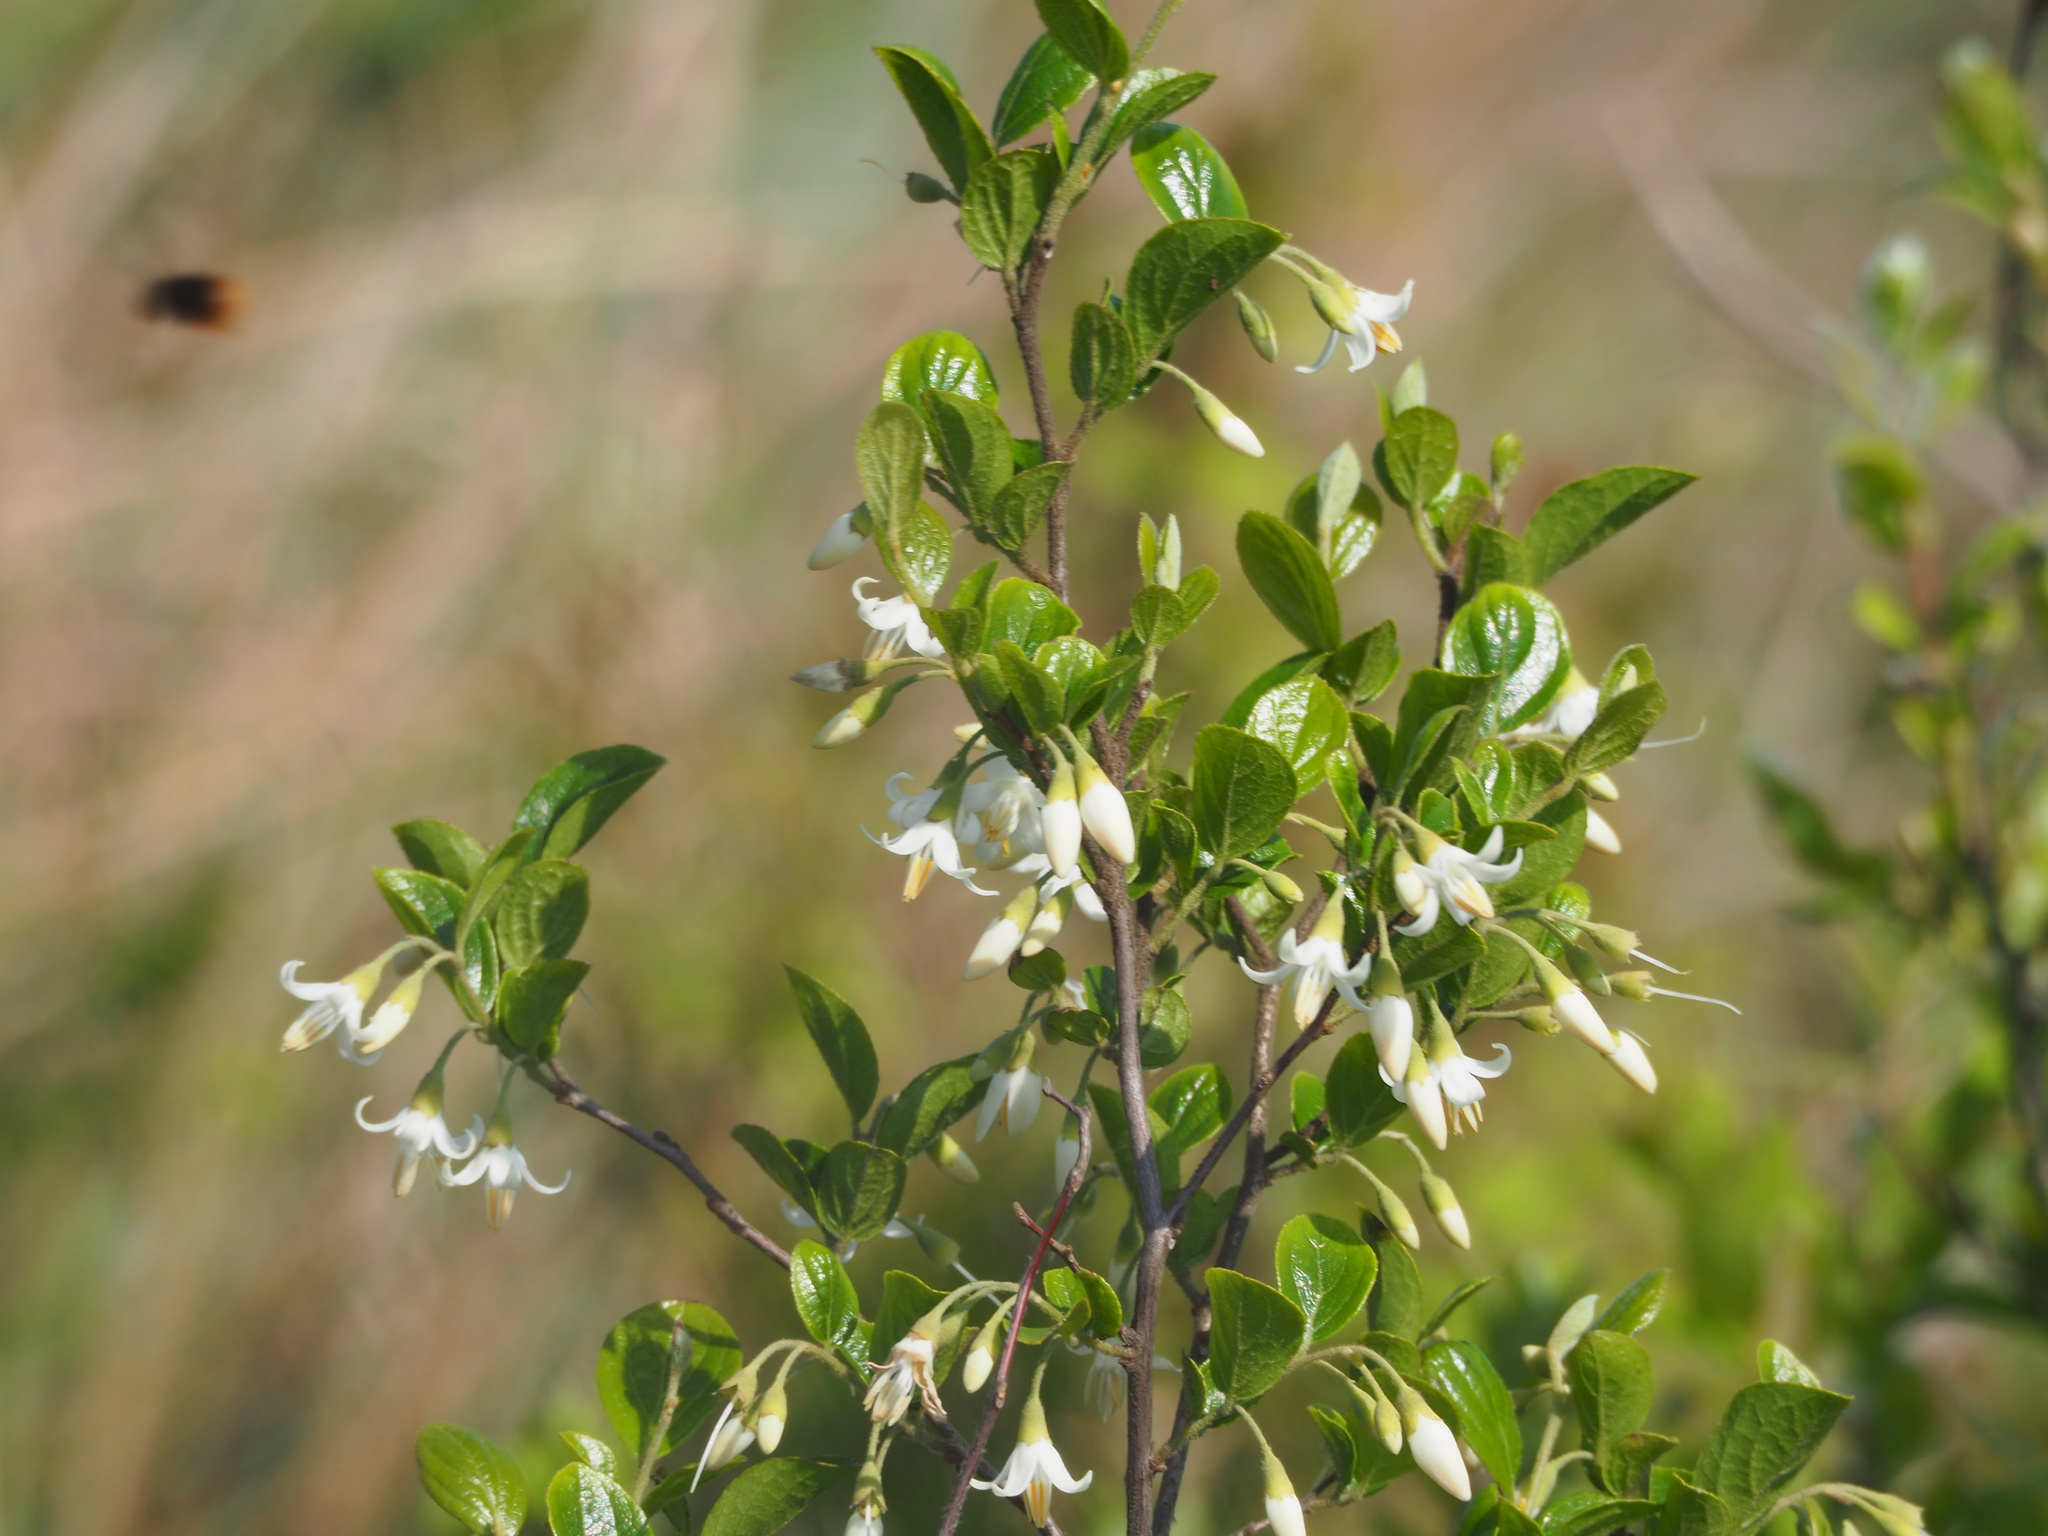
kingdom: Plantae
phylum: Tracheophyta
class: Magnoliopsida
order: Ericales
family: Styracaceae
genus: Styrax
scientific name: Styrax faberi
